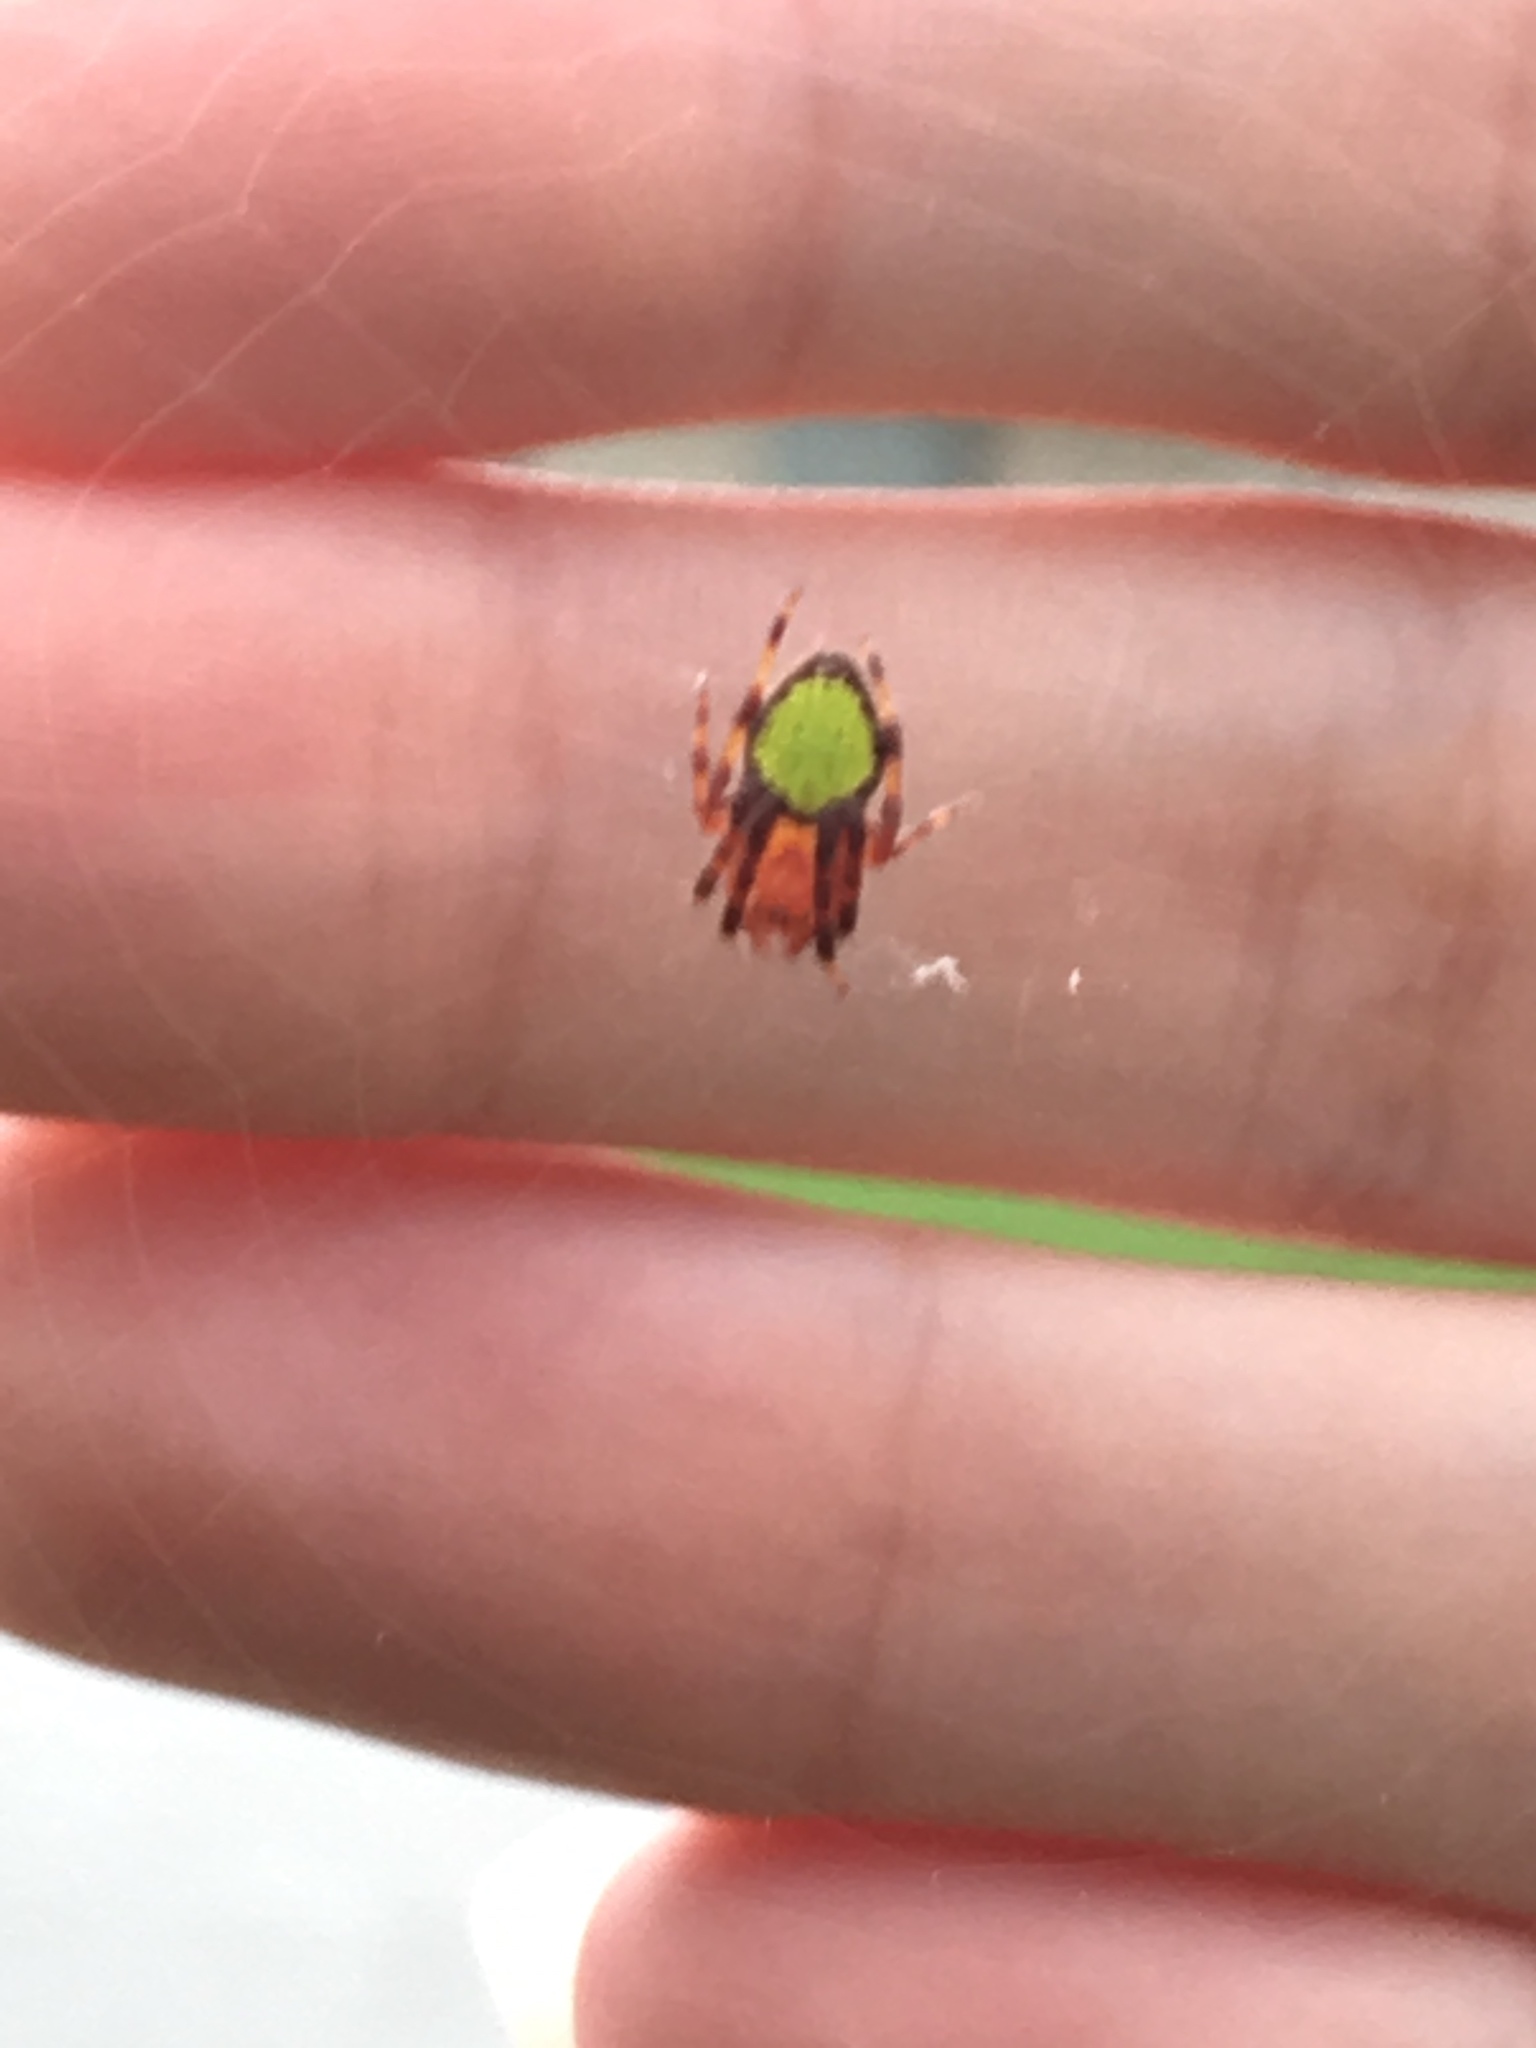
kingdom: Animalia
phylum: Arthropoda
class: Arachnida
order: Araneae
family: Araneidae
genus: Eriophora
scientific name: Eriophora ravilla
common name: Orb weavers
